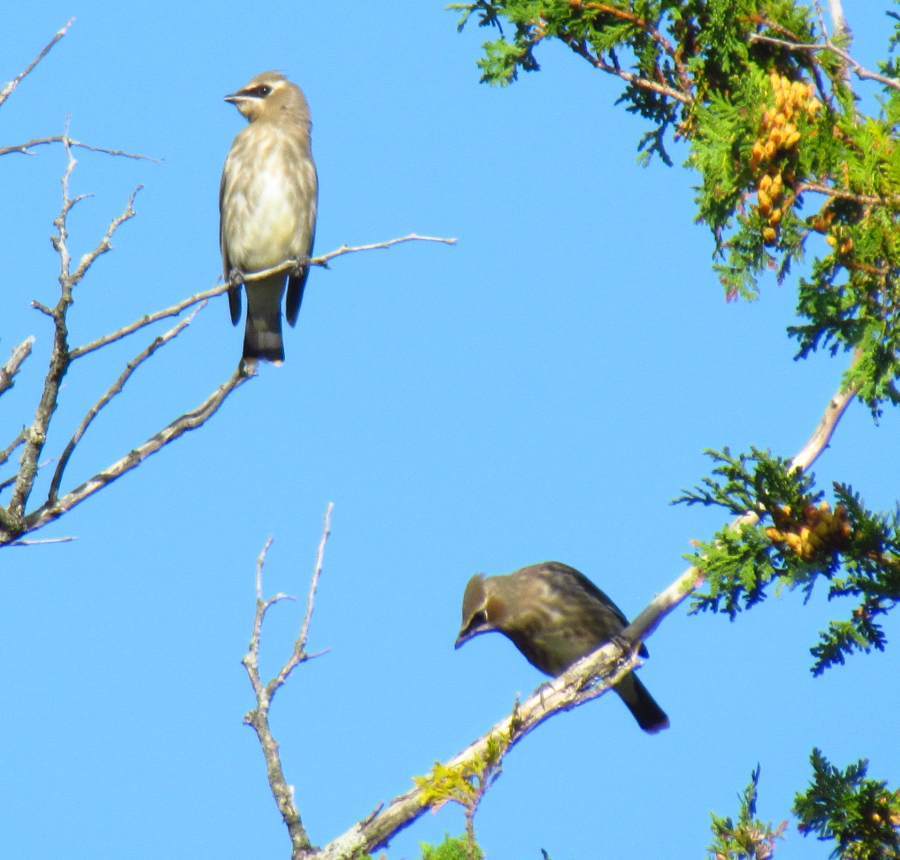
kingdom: Animalia
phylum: Chordata
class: Aves
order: Passeriformes
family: Bombycillidae
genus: Bombycilla
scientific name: Bombycilla cedrorum
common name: Cedar waxwing
